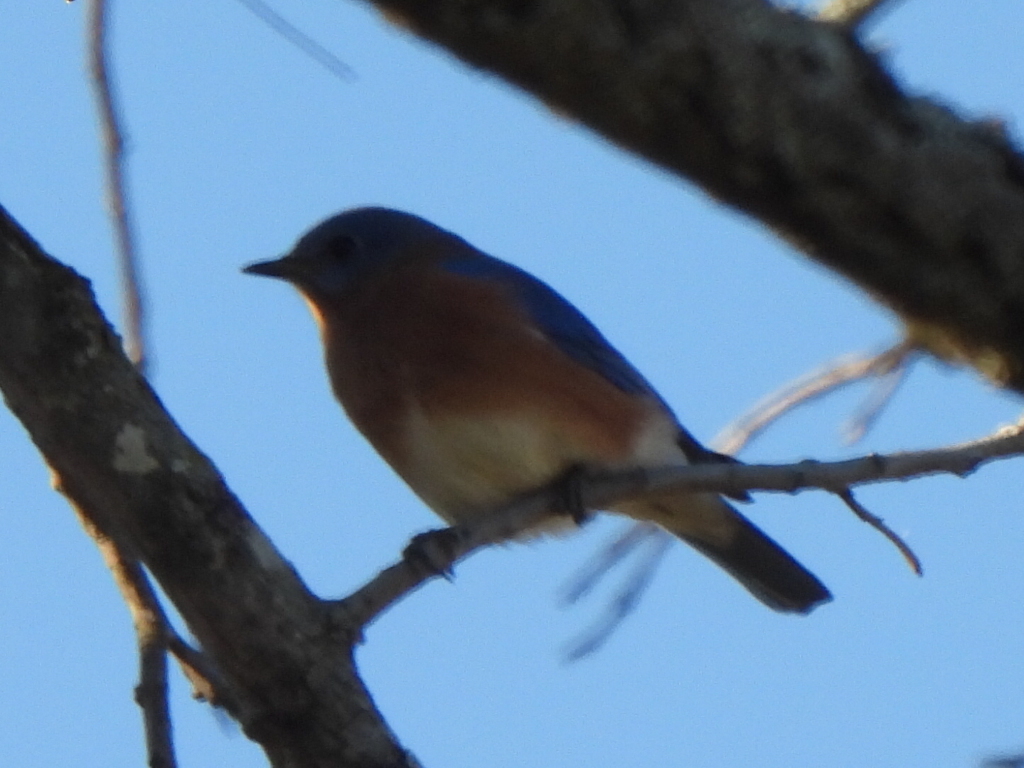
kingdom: Animalia
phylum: Chordata
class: Aves
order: Passeriformes
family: Turdidae
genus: Sialia
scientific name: Sialia sialis
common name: Eastern bluebird
